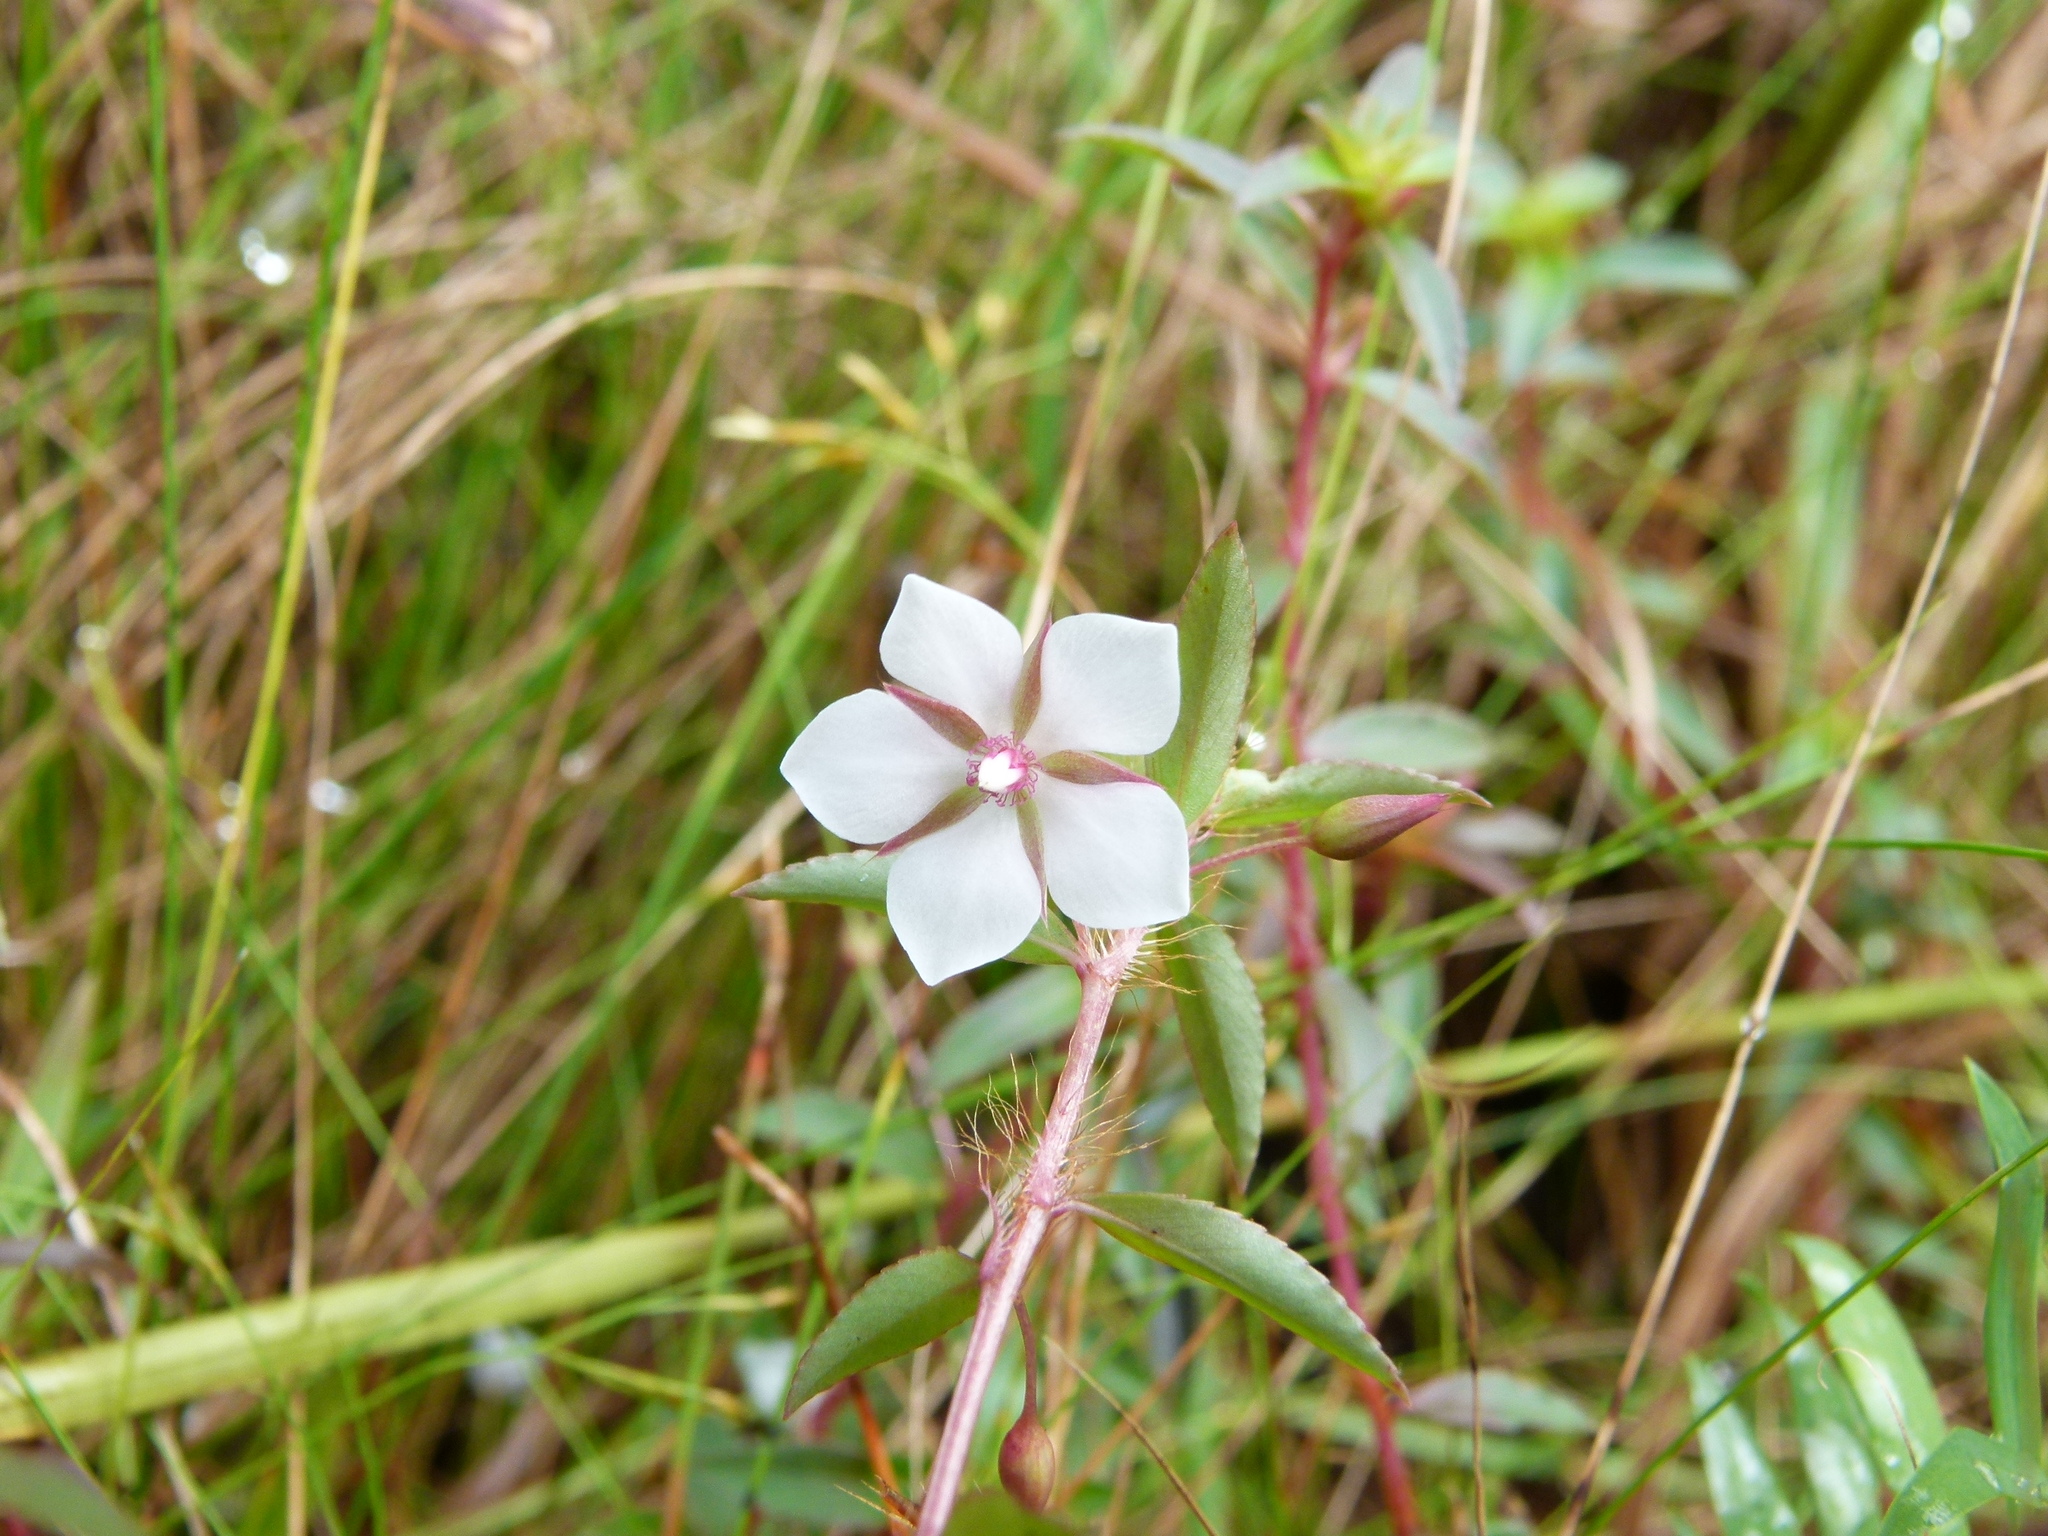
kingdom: Plantae
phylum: Tracheophyta
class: Magnoliopsida
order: Malpighiales
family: Ochnaceae
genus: Sauvagesia
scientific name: Sauvagesia erecta
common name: Creole tea
